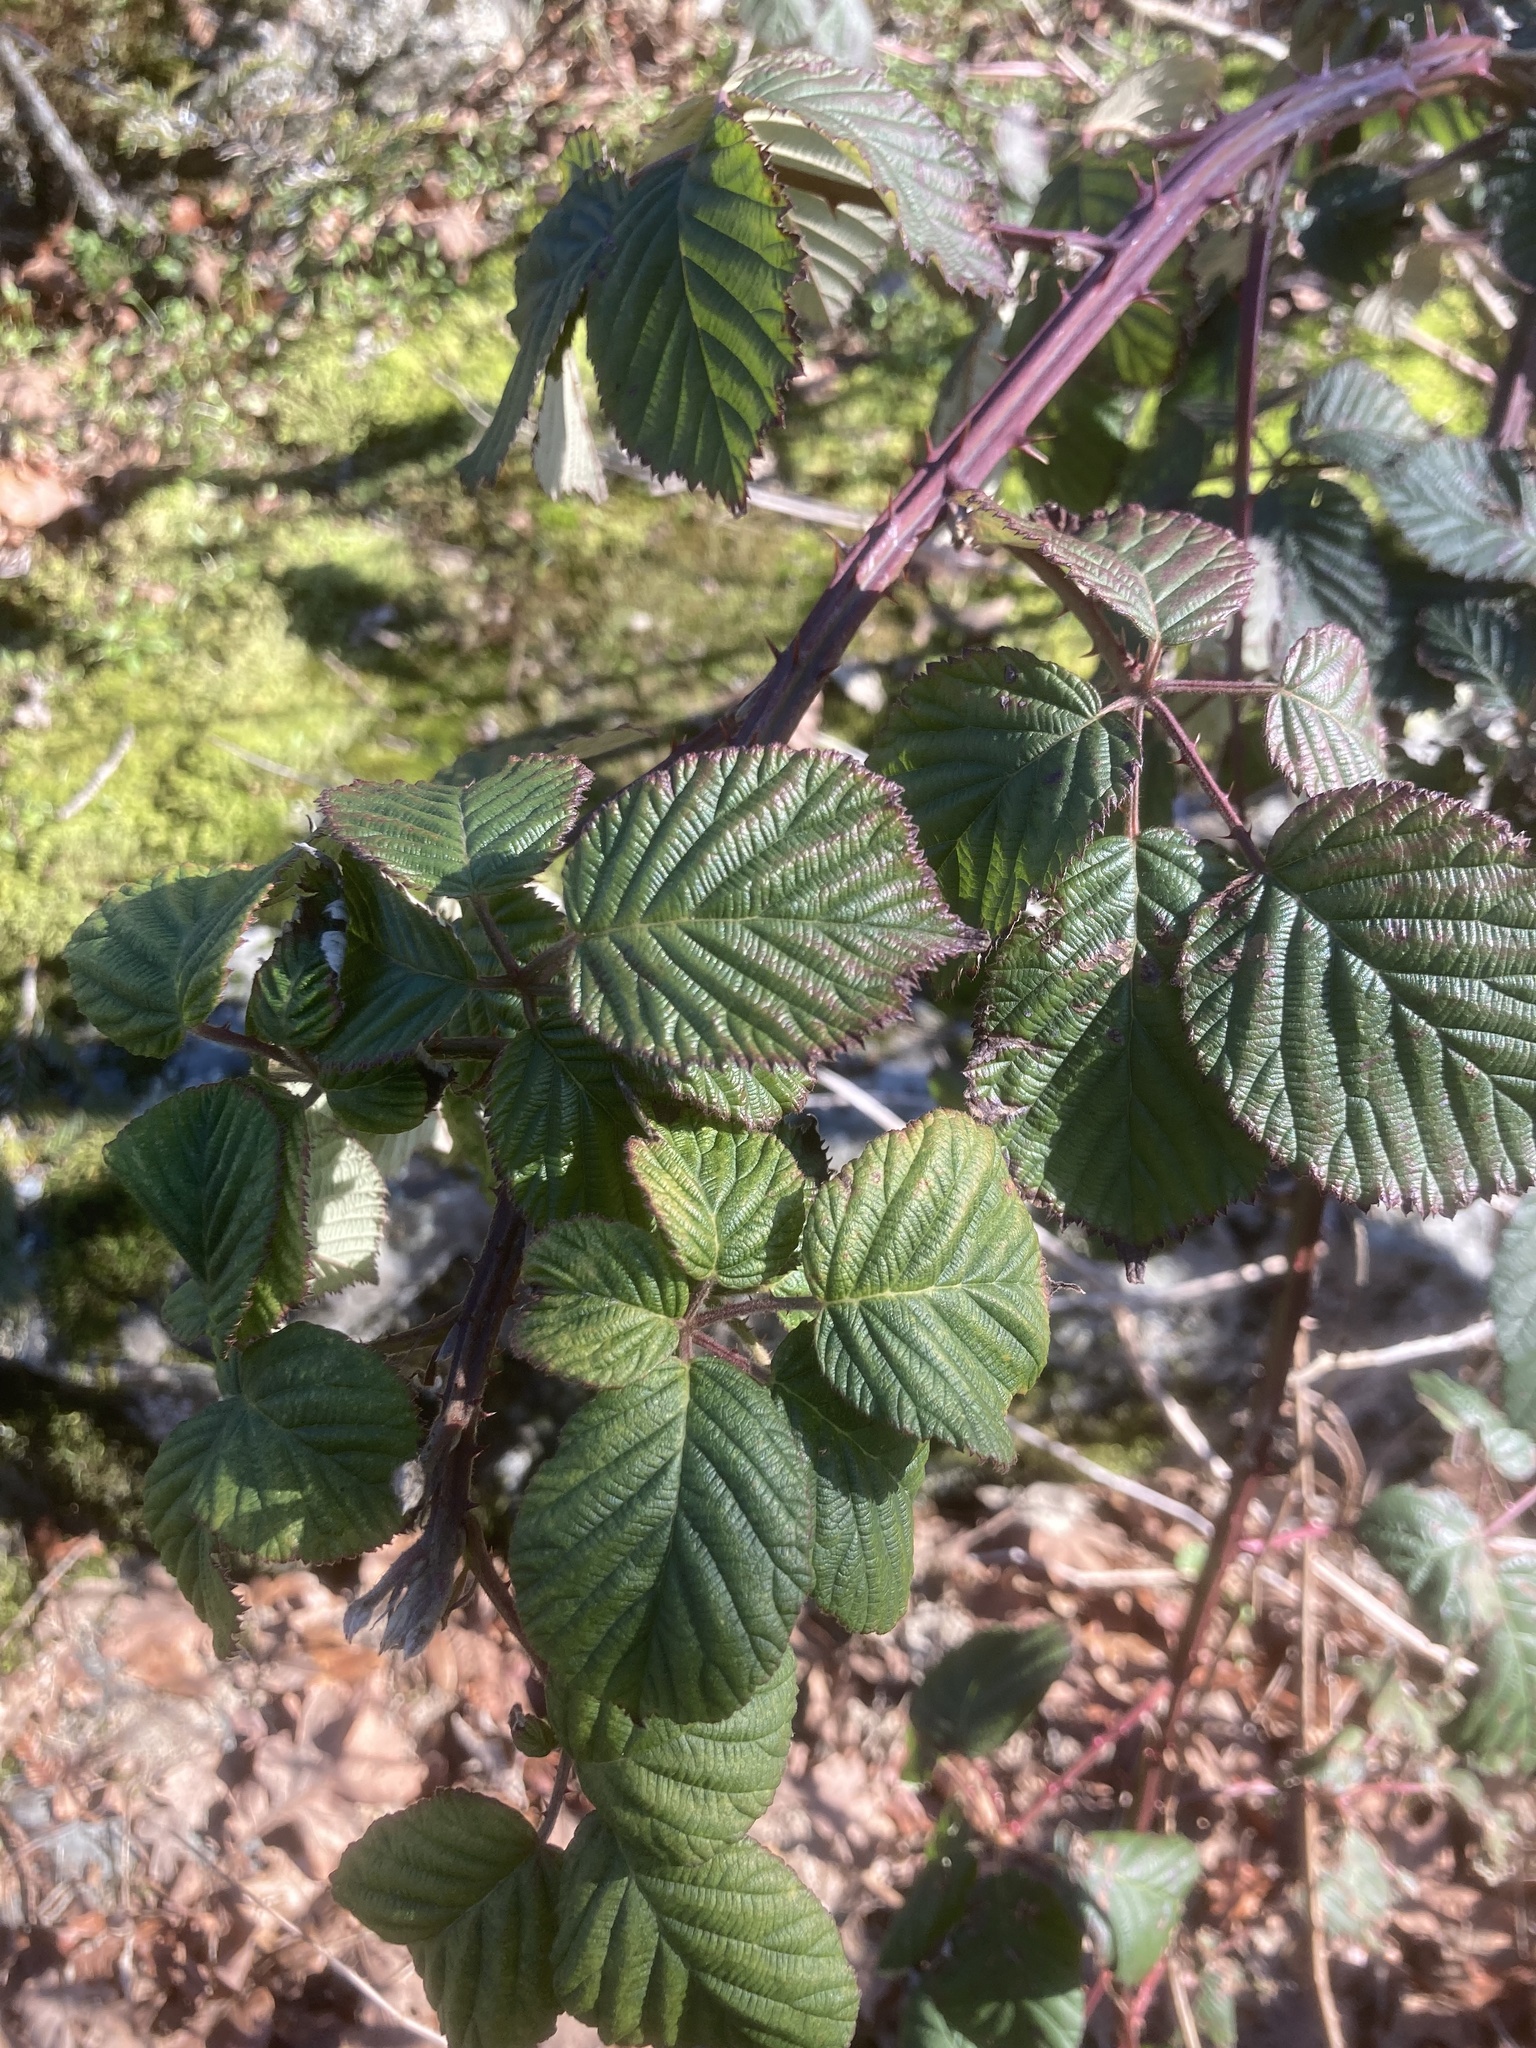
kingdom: Plantae
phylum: Tracheophyta
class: Magnoliopsida
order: Rosales
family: Rosaceae
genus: Rubus
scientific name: Rubus bifrons
